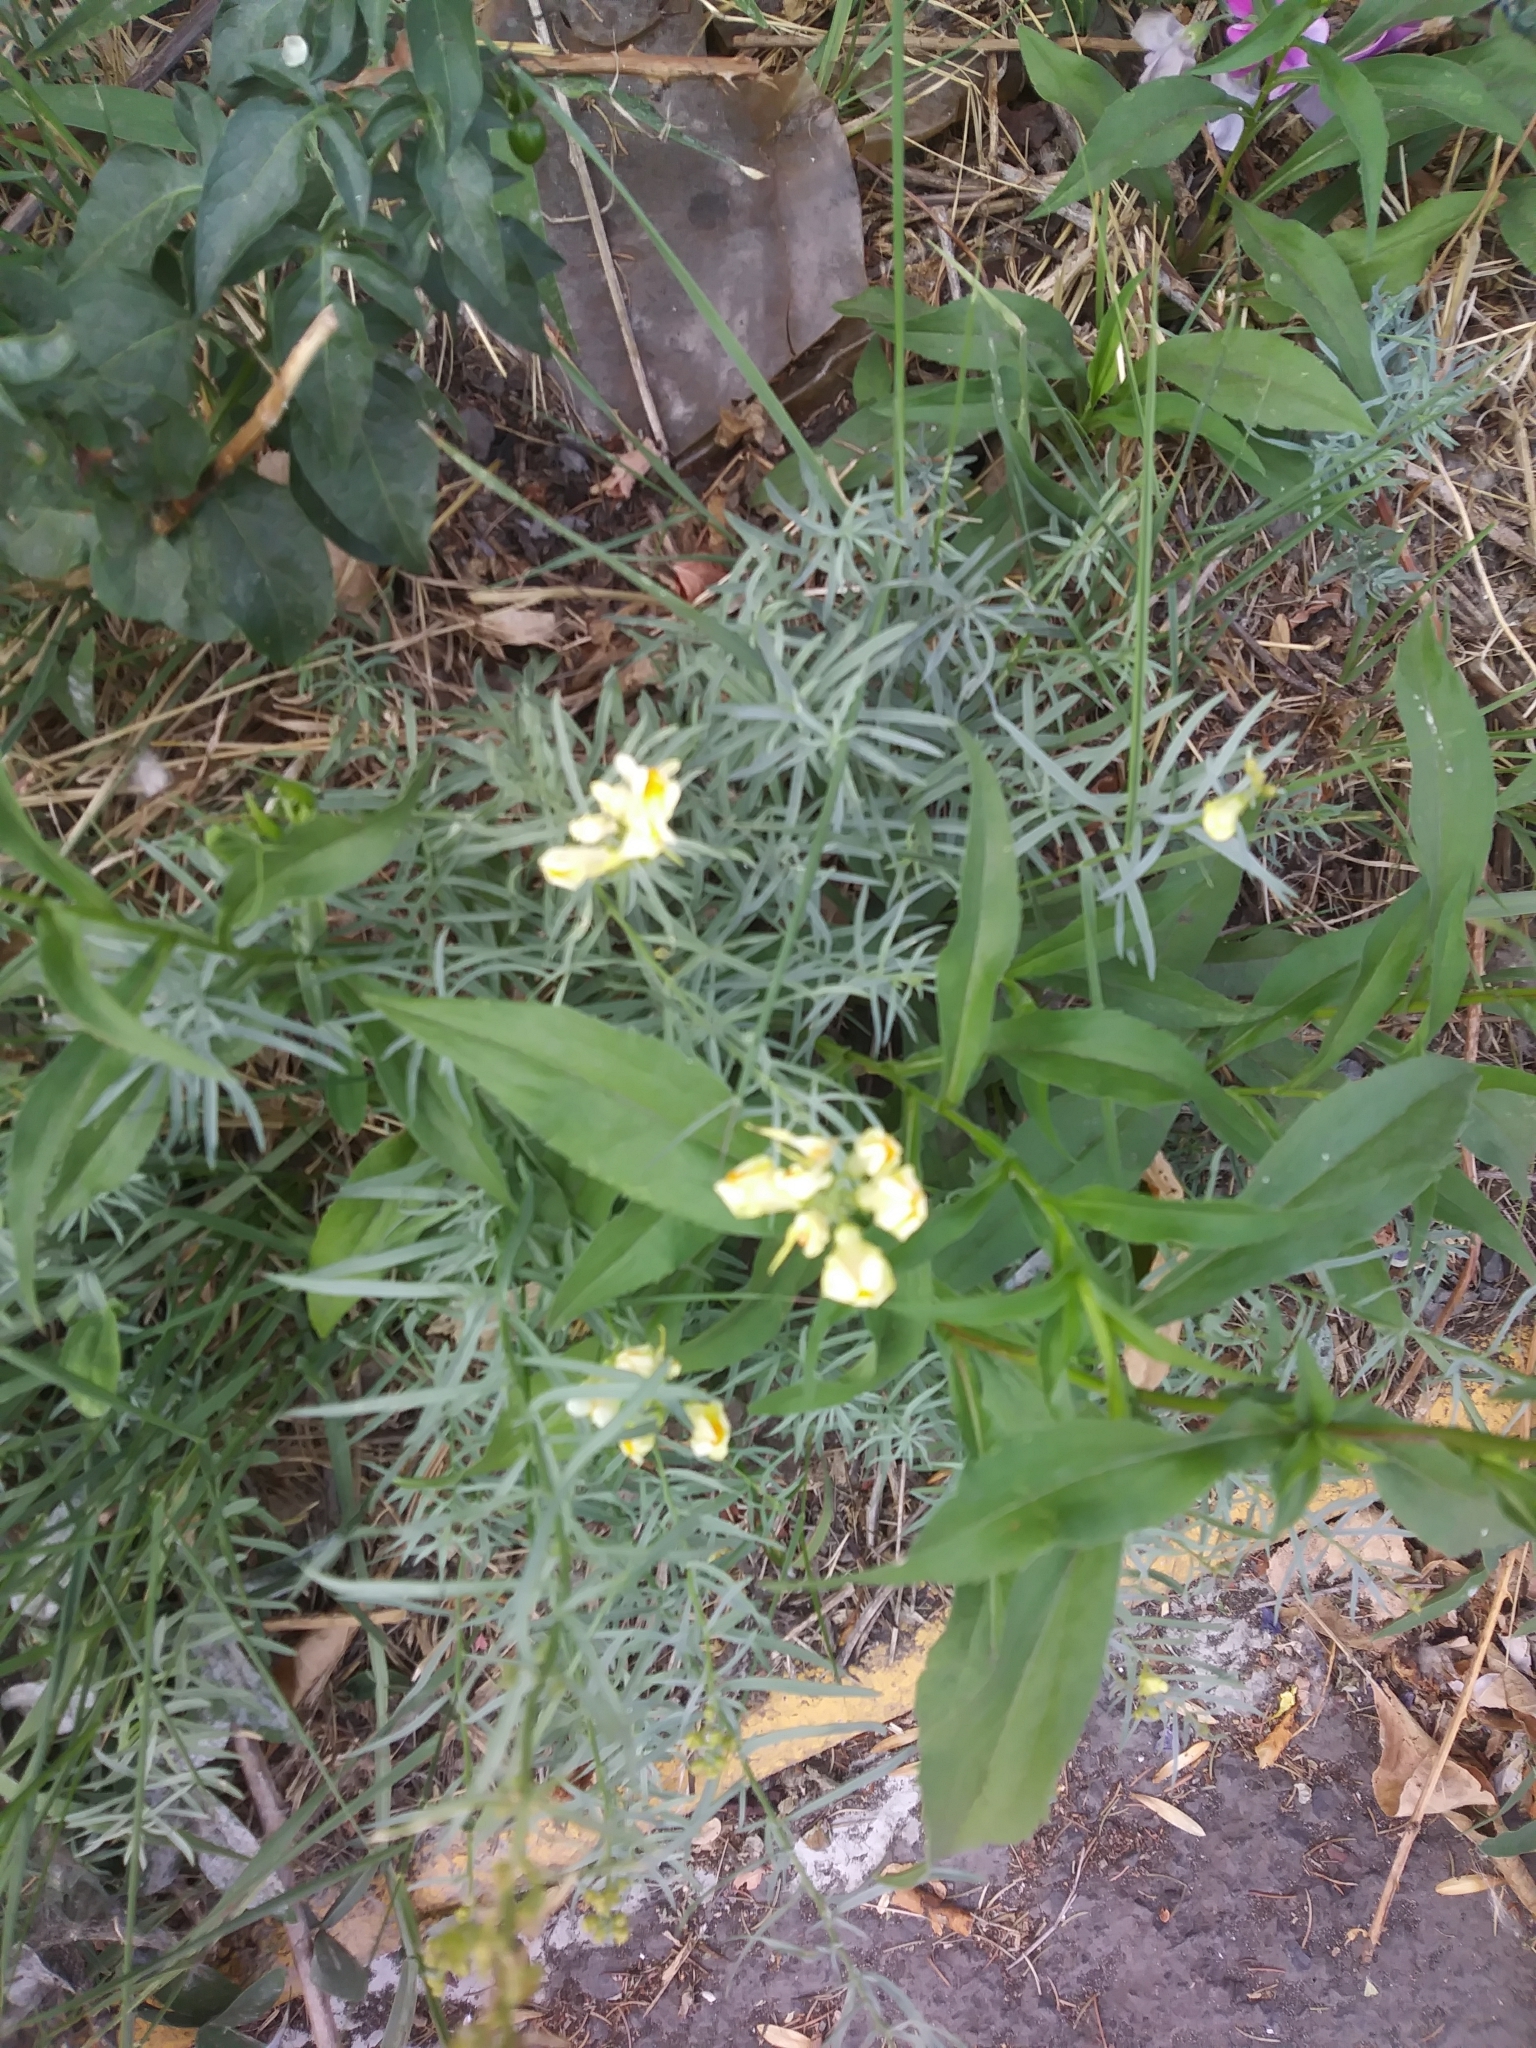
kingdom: Plantae
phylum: Tracheophyta
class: Magnoliopsida
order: Lamiales
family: Plantaginaceae
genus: Linaria
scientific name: Linaria vulgaris
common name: Butter and eggs
